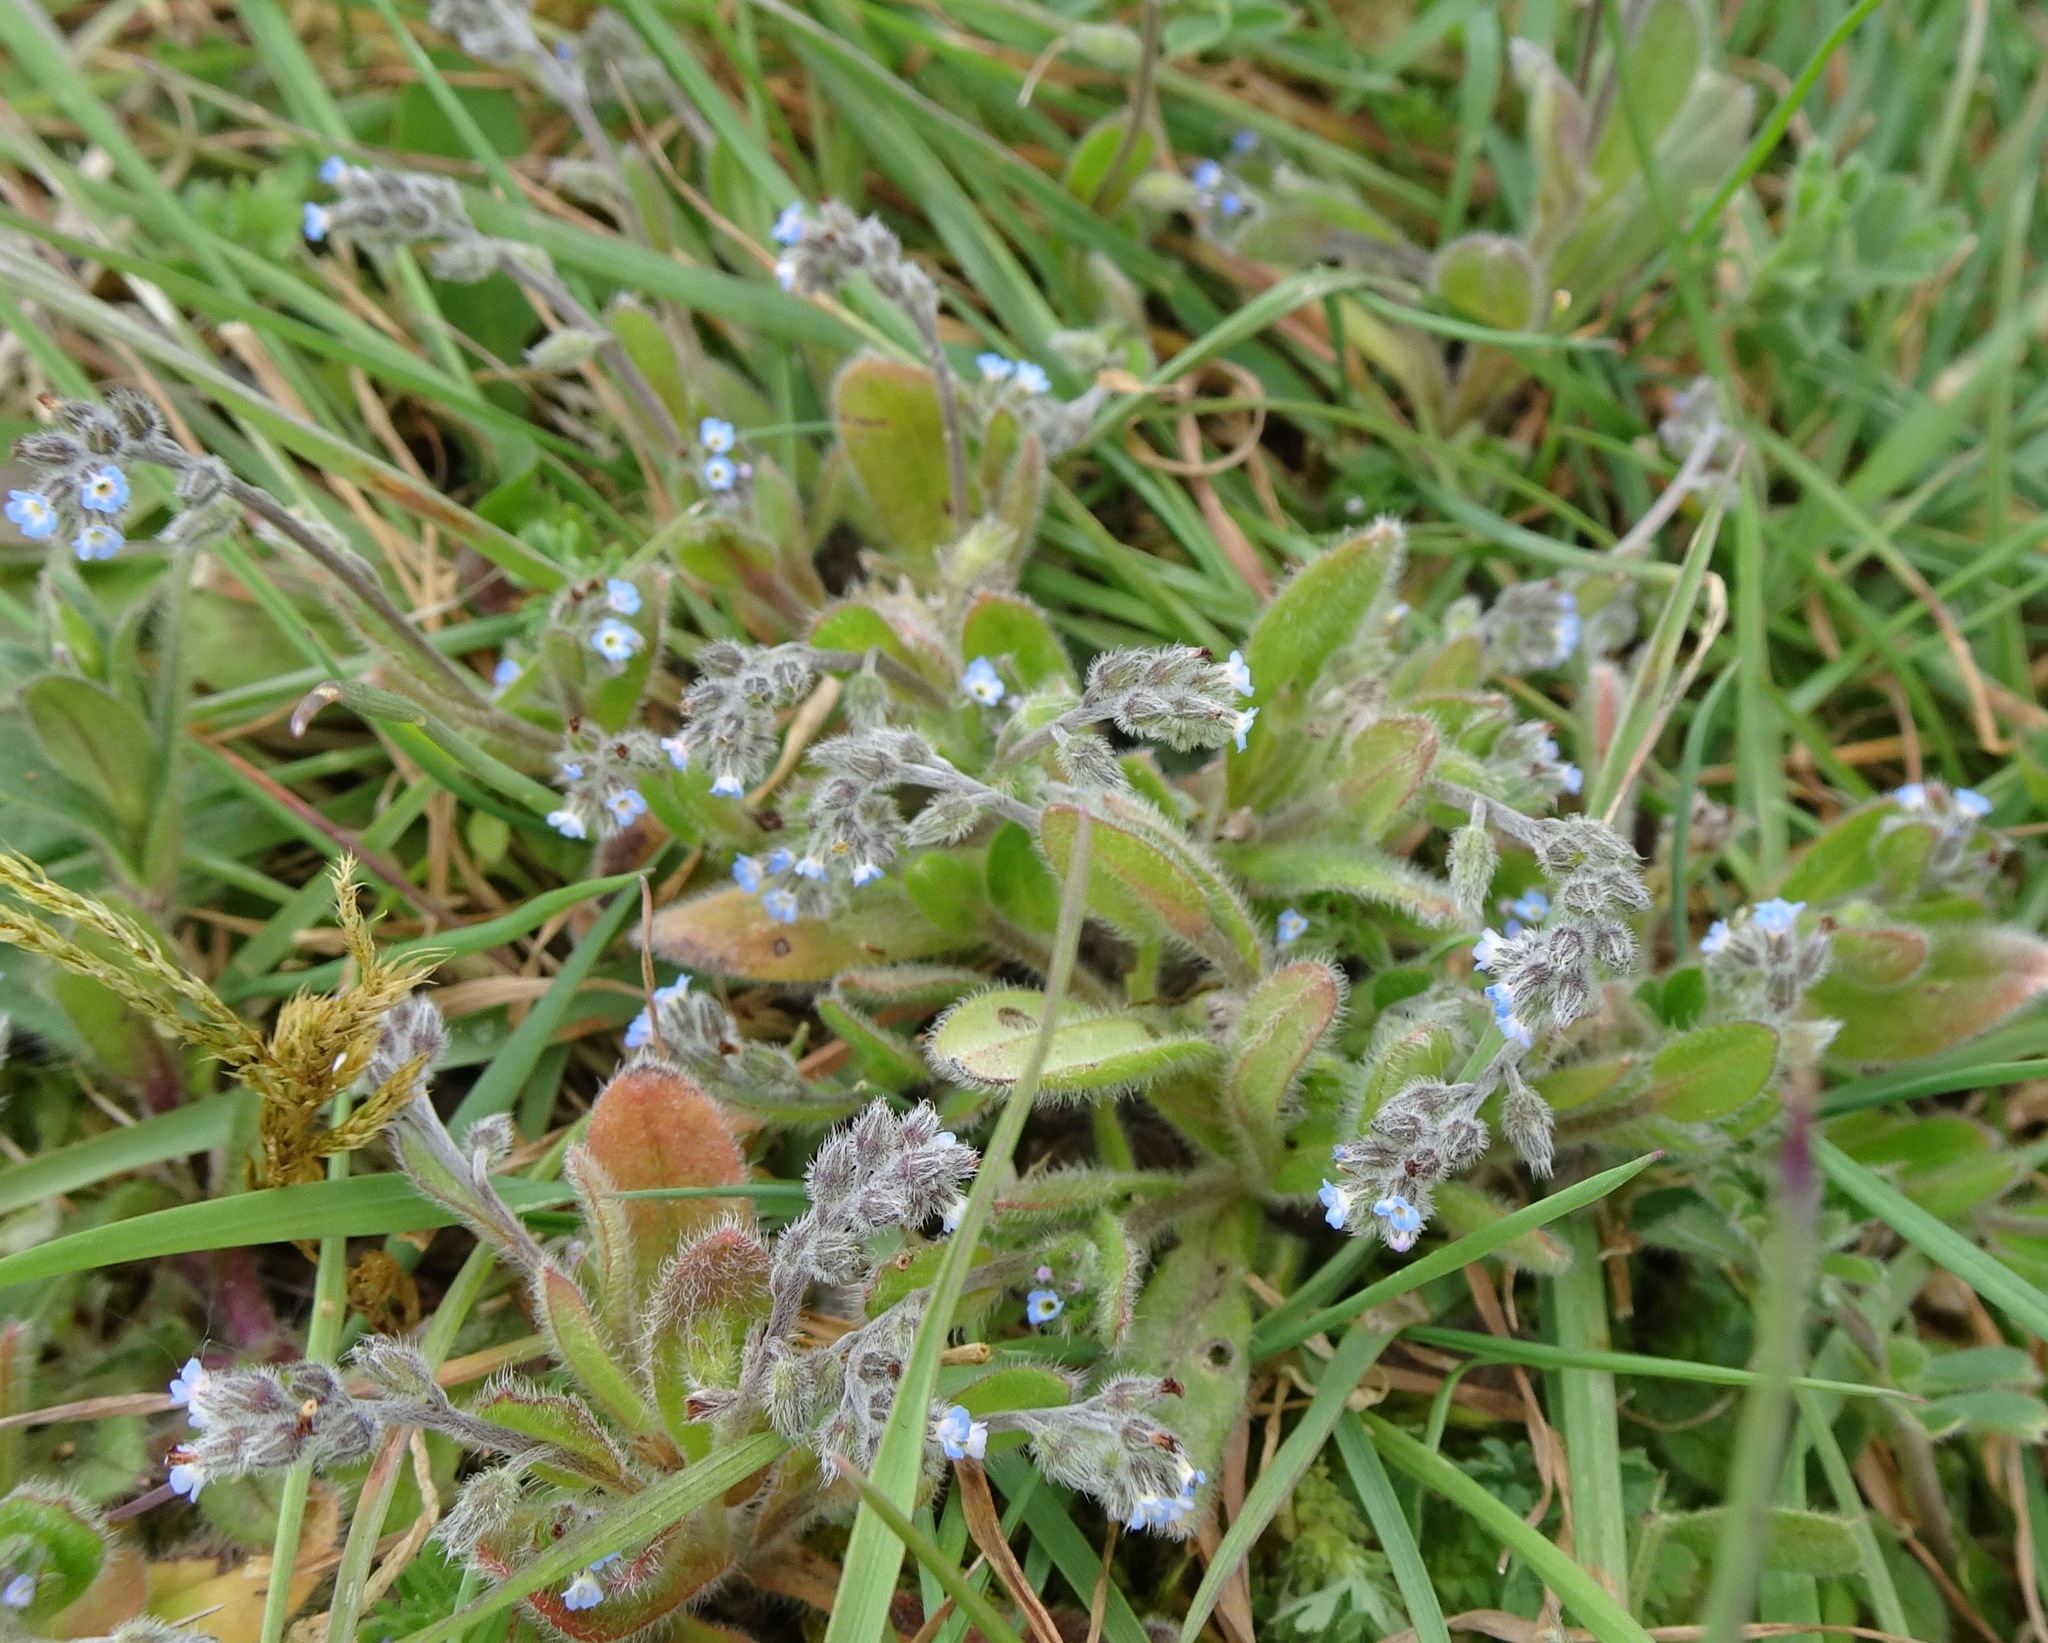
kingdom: Plantae
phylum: Tracheophyta
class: Magnoliopsida
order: Boraginales
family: Boraginaceae
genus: Myosotis
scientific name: Myosotis ramosissima
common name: Early forget-me-not
